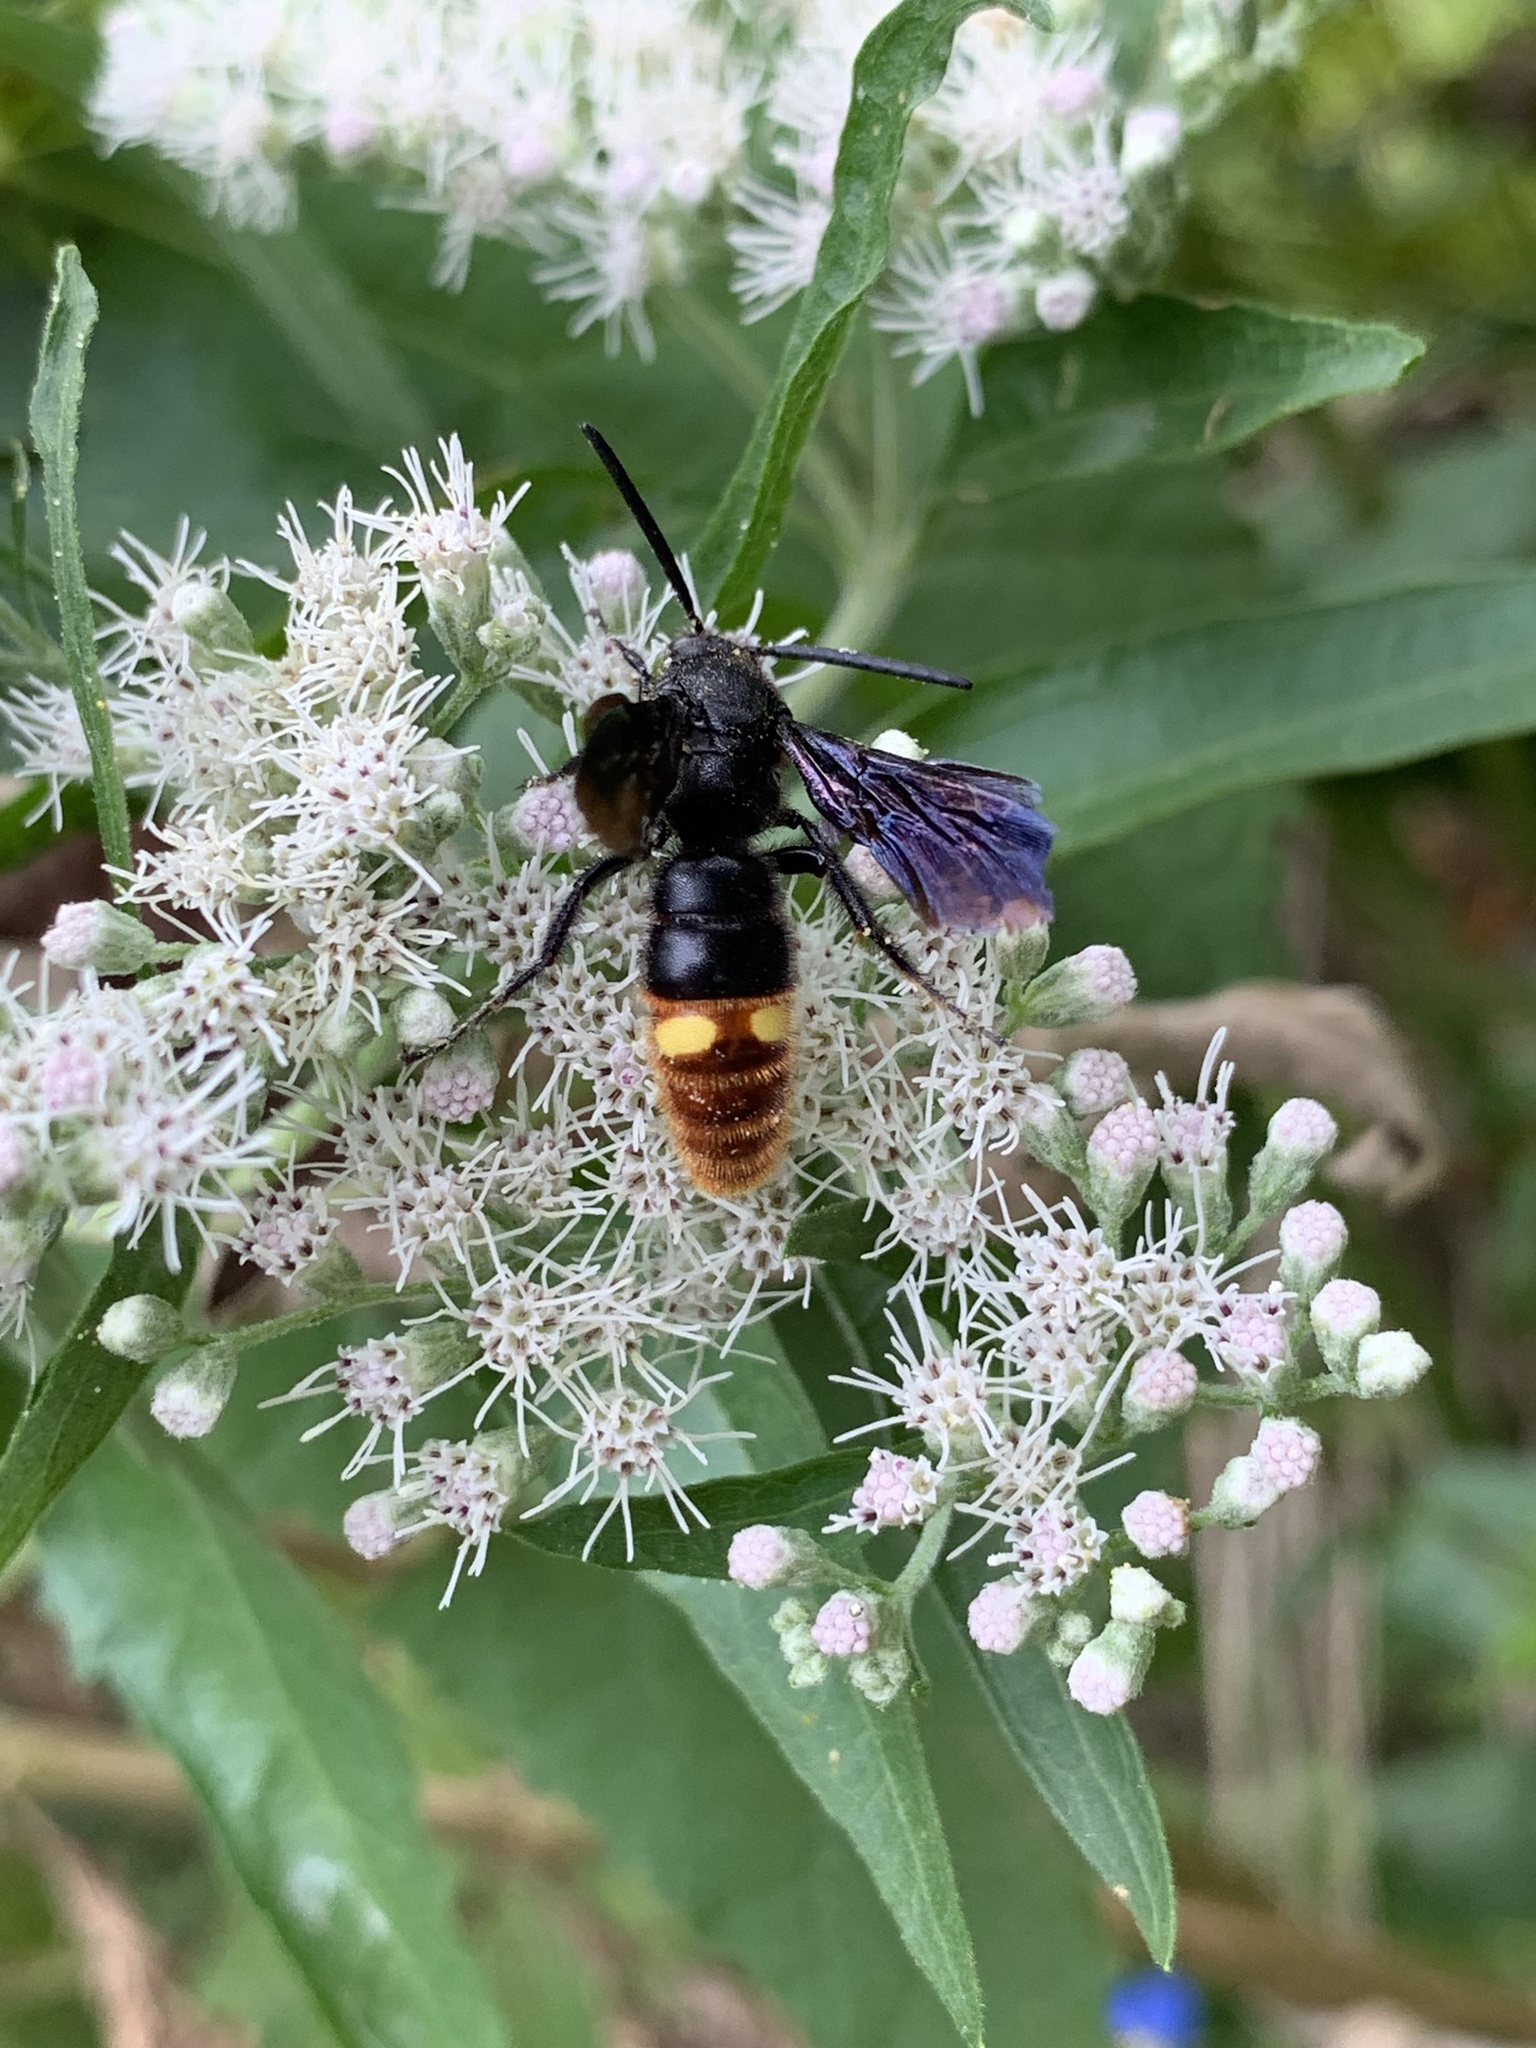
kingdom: Animalia
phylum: Arthropoda
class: Insecta
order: Hymenoptera
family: Scoliidae
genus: Scolia
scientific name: Scolia dubia
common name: Blue-winged scoliid wasp
